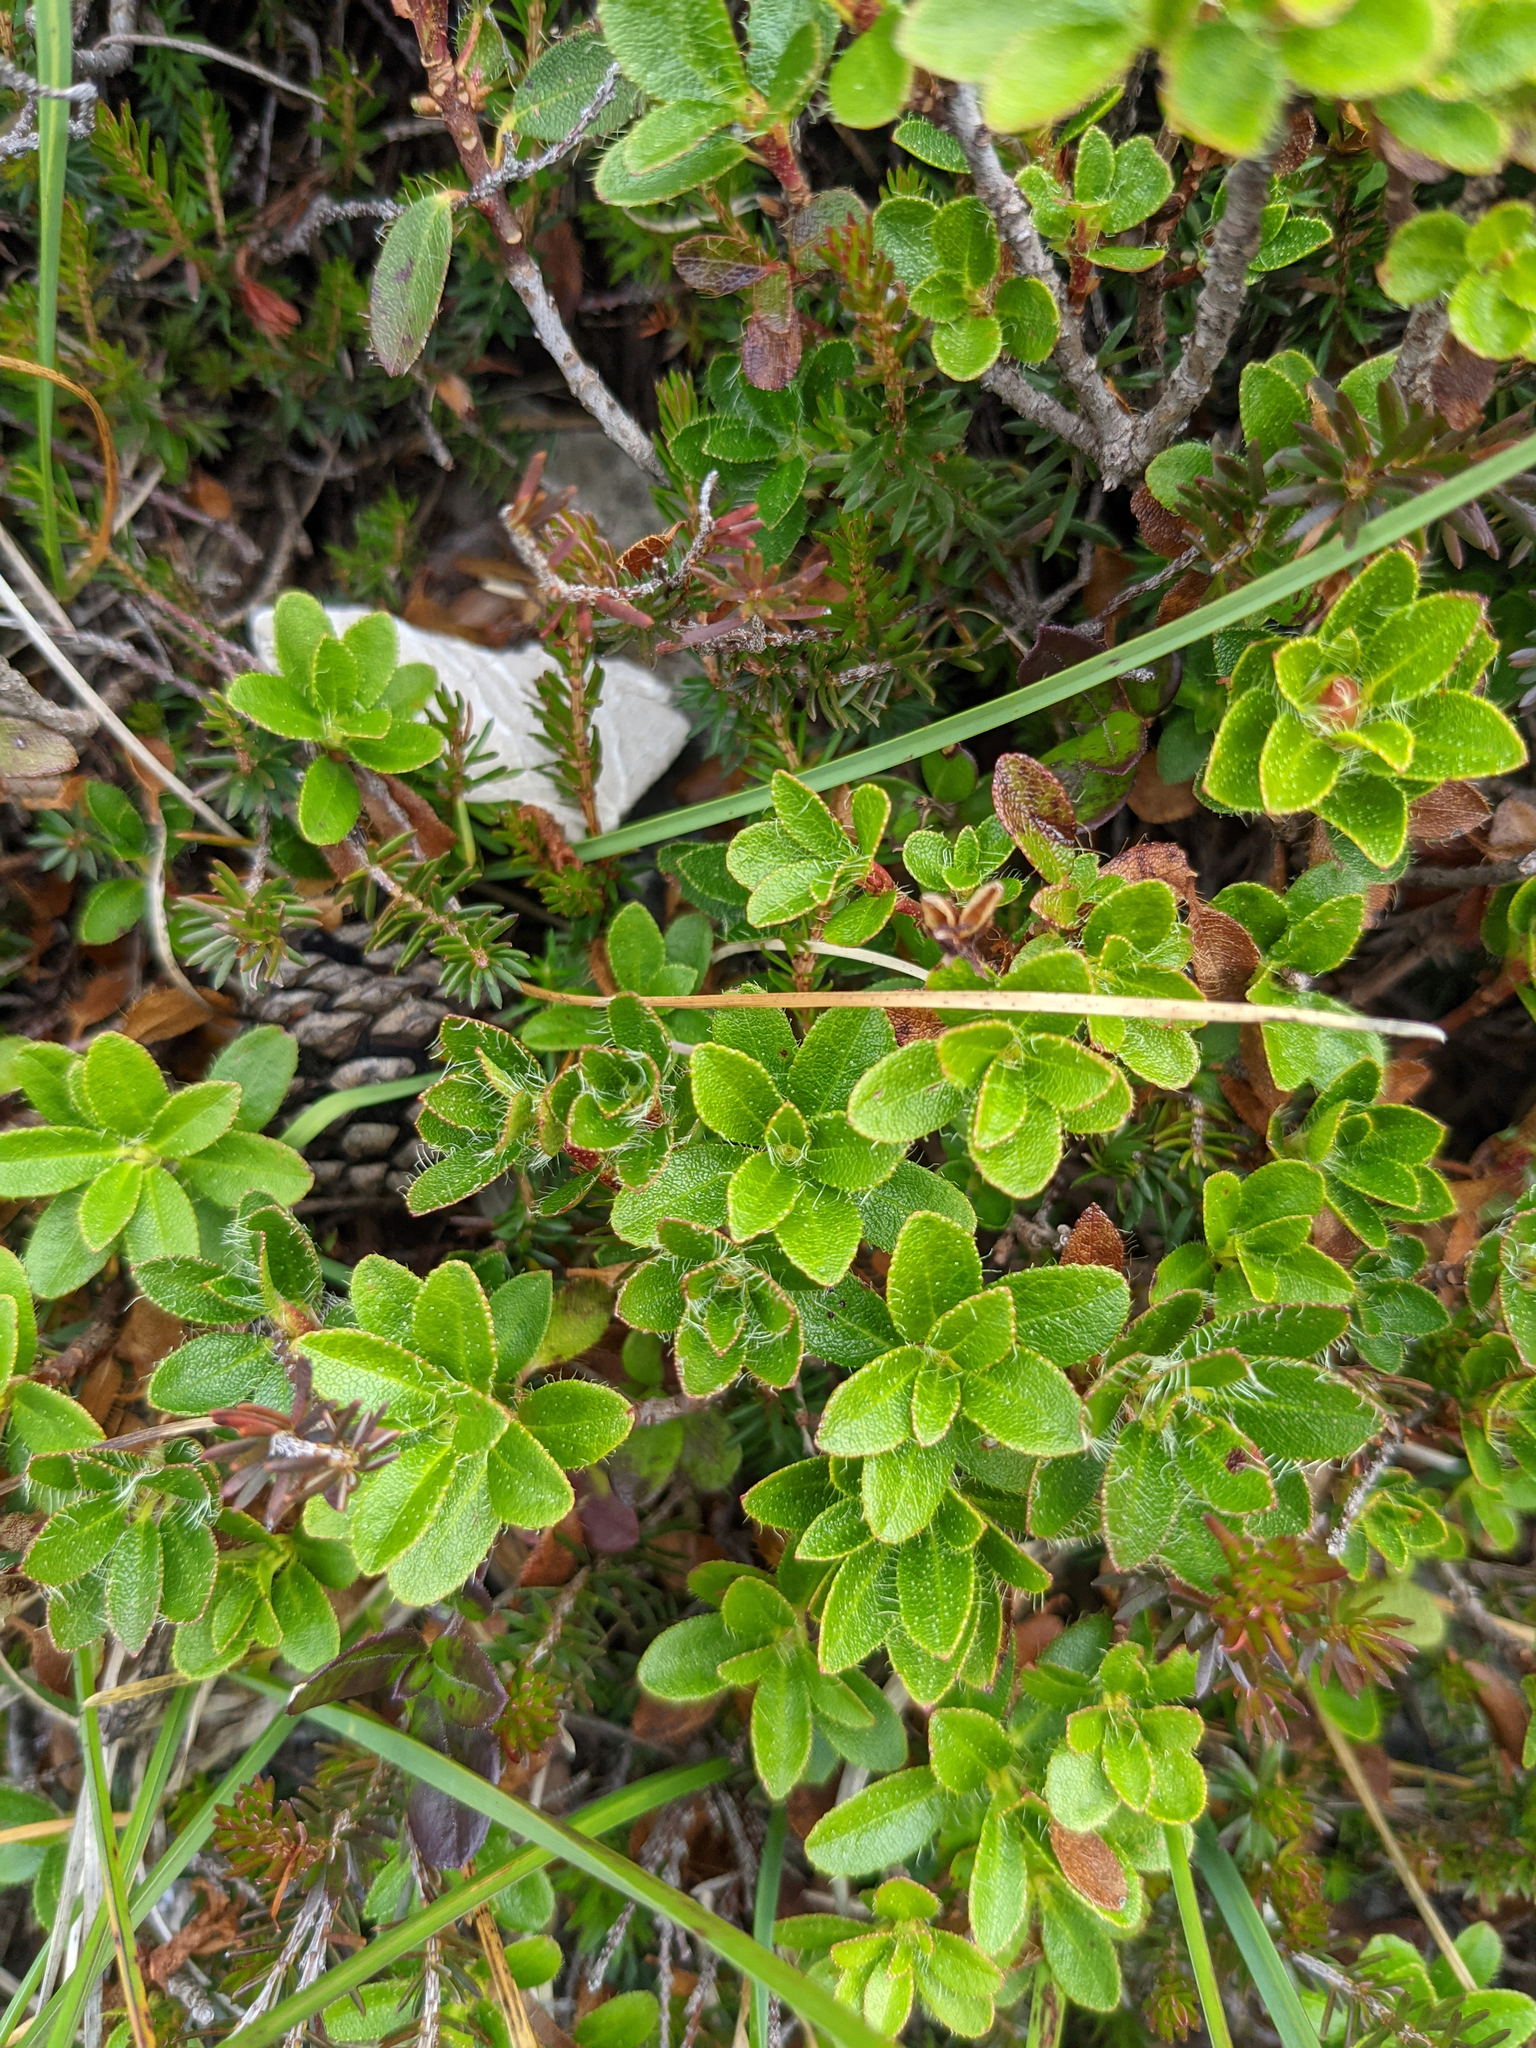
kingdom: Plantae
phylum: Tracheophyta
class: Magnoliopsida
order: Ericales
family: Ericaceae
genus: Rhododendron
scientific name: Rhododendron hirsutum
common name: Hairy alpenrose
